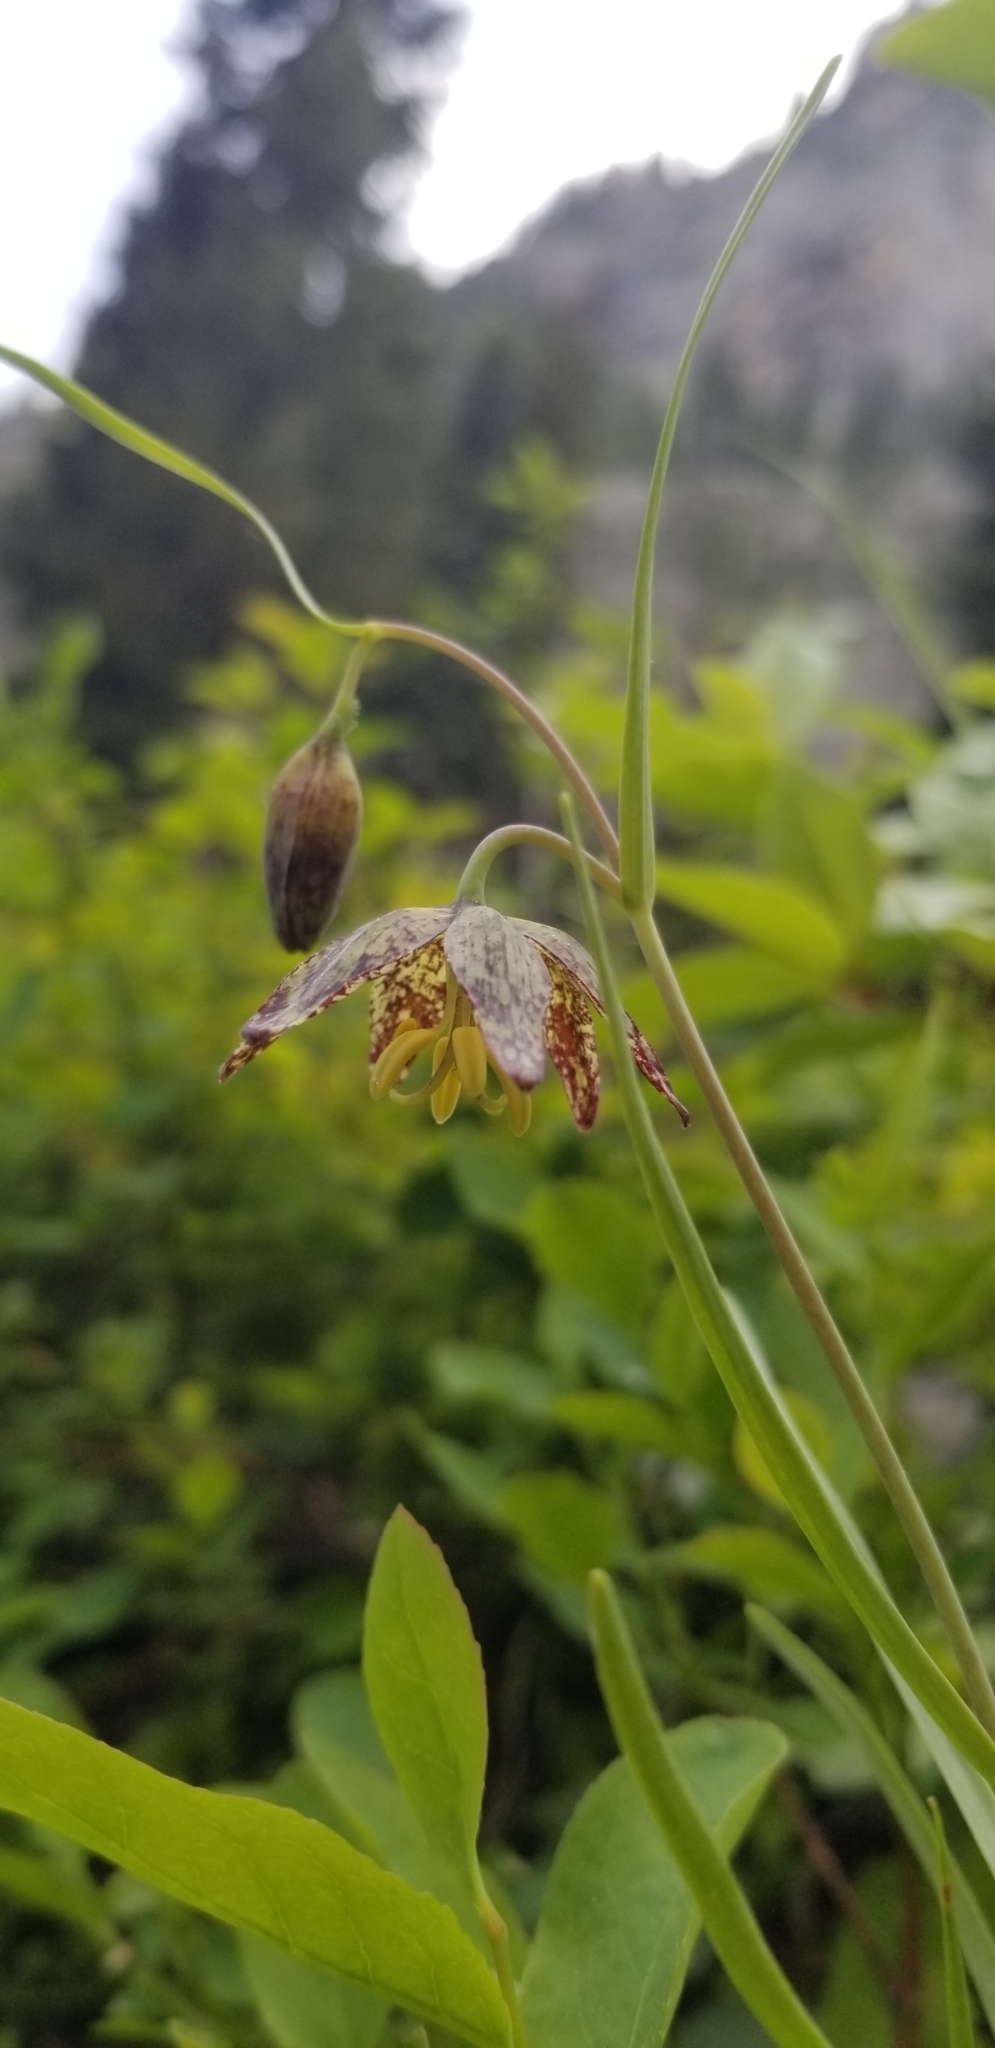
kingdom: Plantae
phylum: Tracheophyta
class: Liliopsida
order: Liliales
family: Liliaceae
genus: Fritillaria
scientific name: Fritillaria atropurpurea
